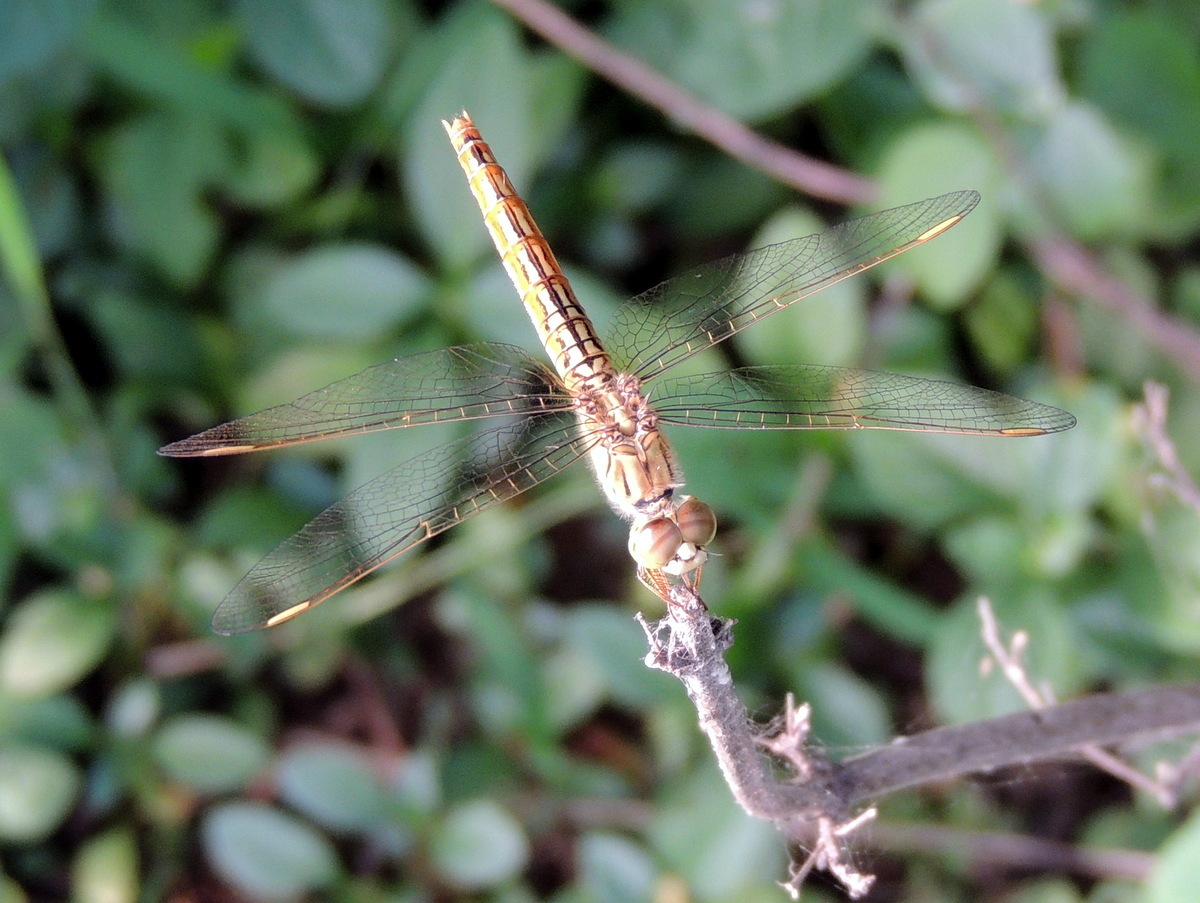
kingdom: Animalia
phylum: Arthropoda
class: Insecta
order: Odonata
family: Libellulidae
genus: Brachythemis
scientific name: Brachythemis contaminata
